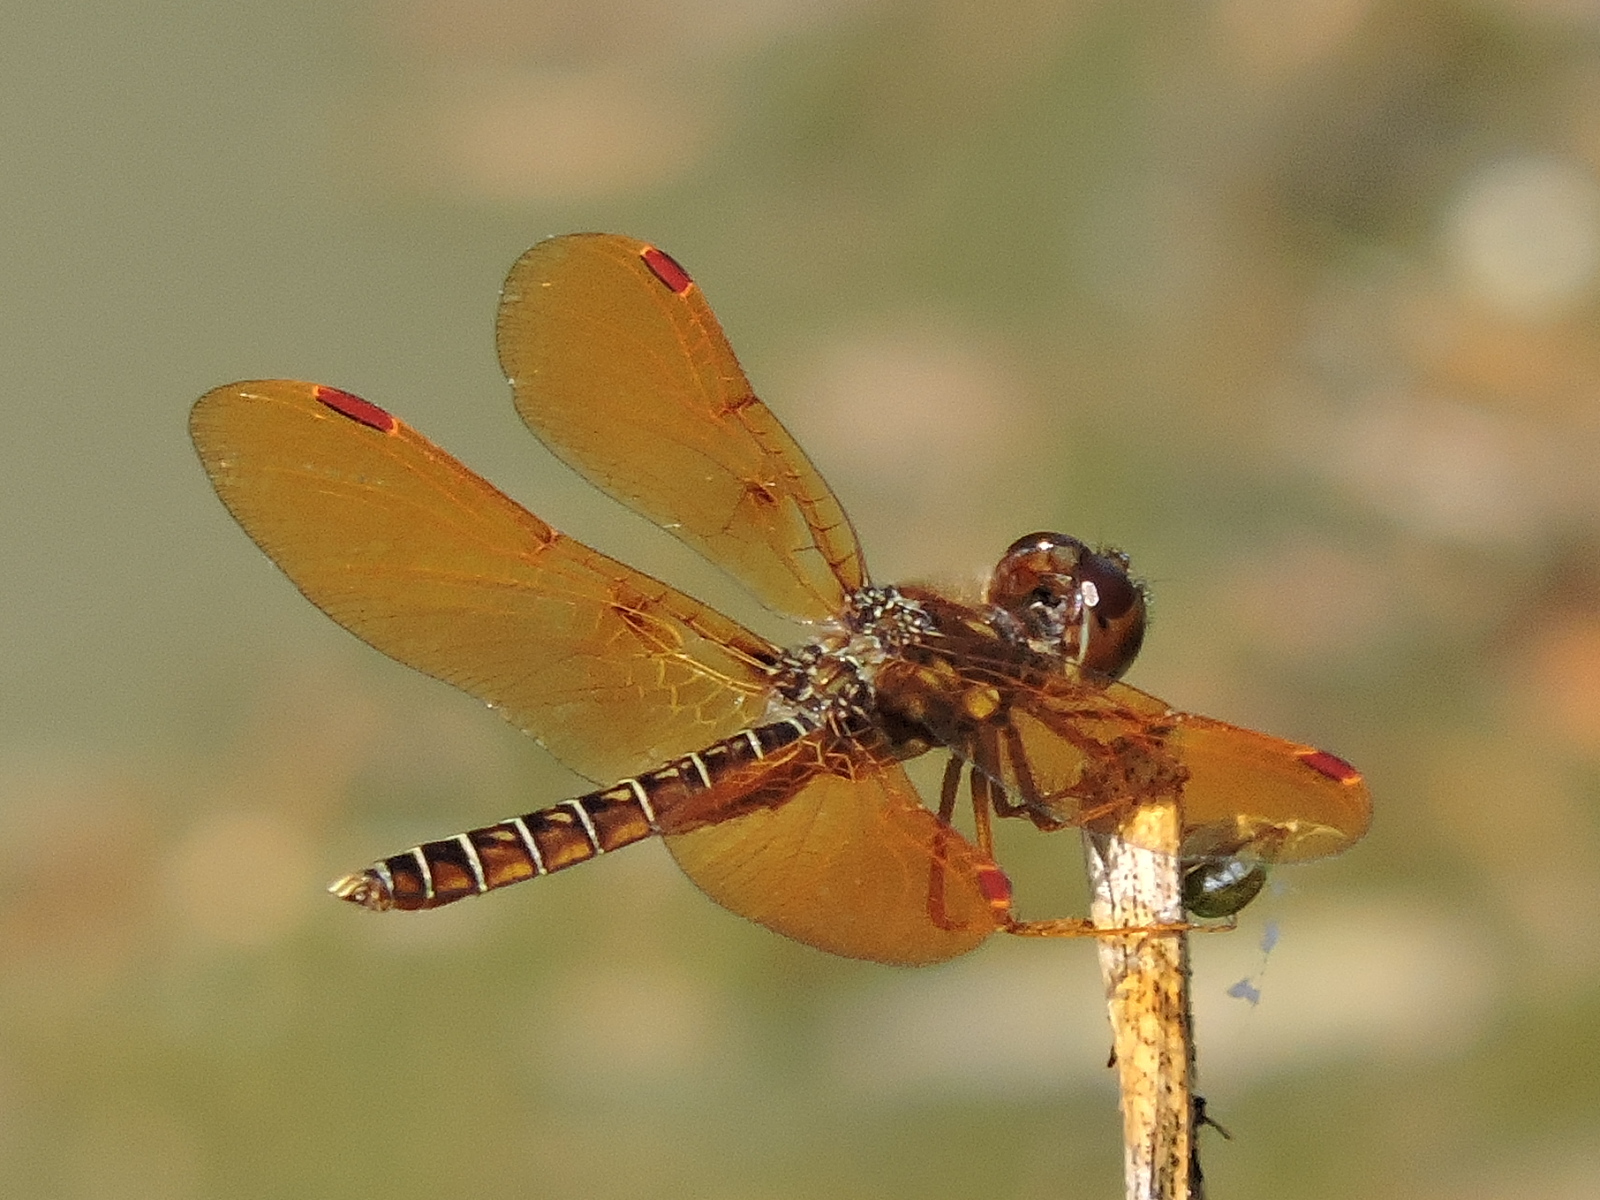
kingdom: Animalia
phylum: Arthropoda
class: Insecta
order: Odonata
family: Libellulidae
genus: Perithemis
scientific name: Perithemis tenera
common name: Eastern amberwing
